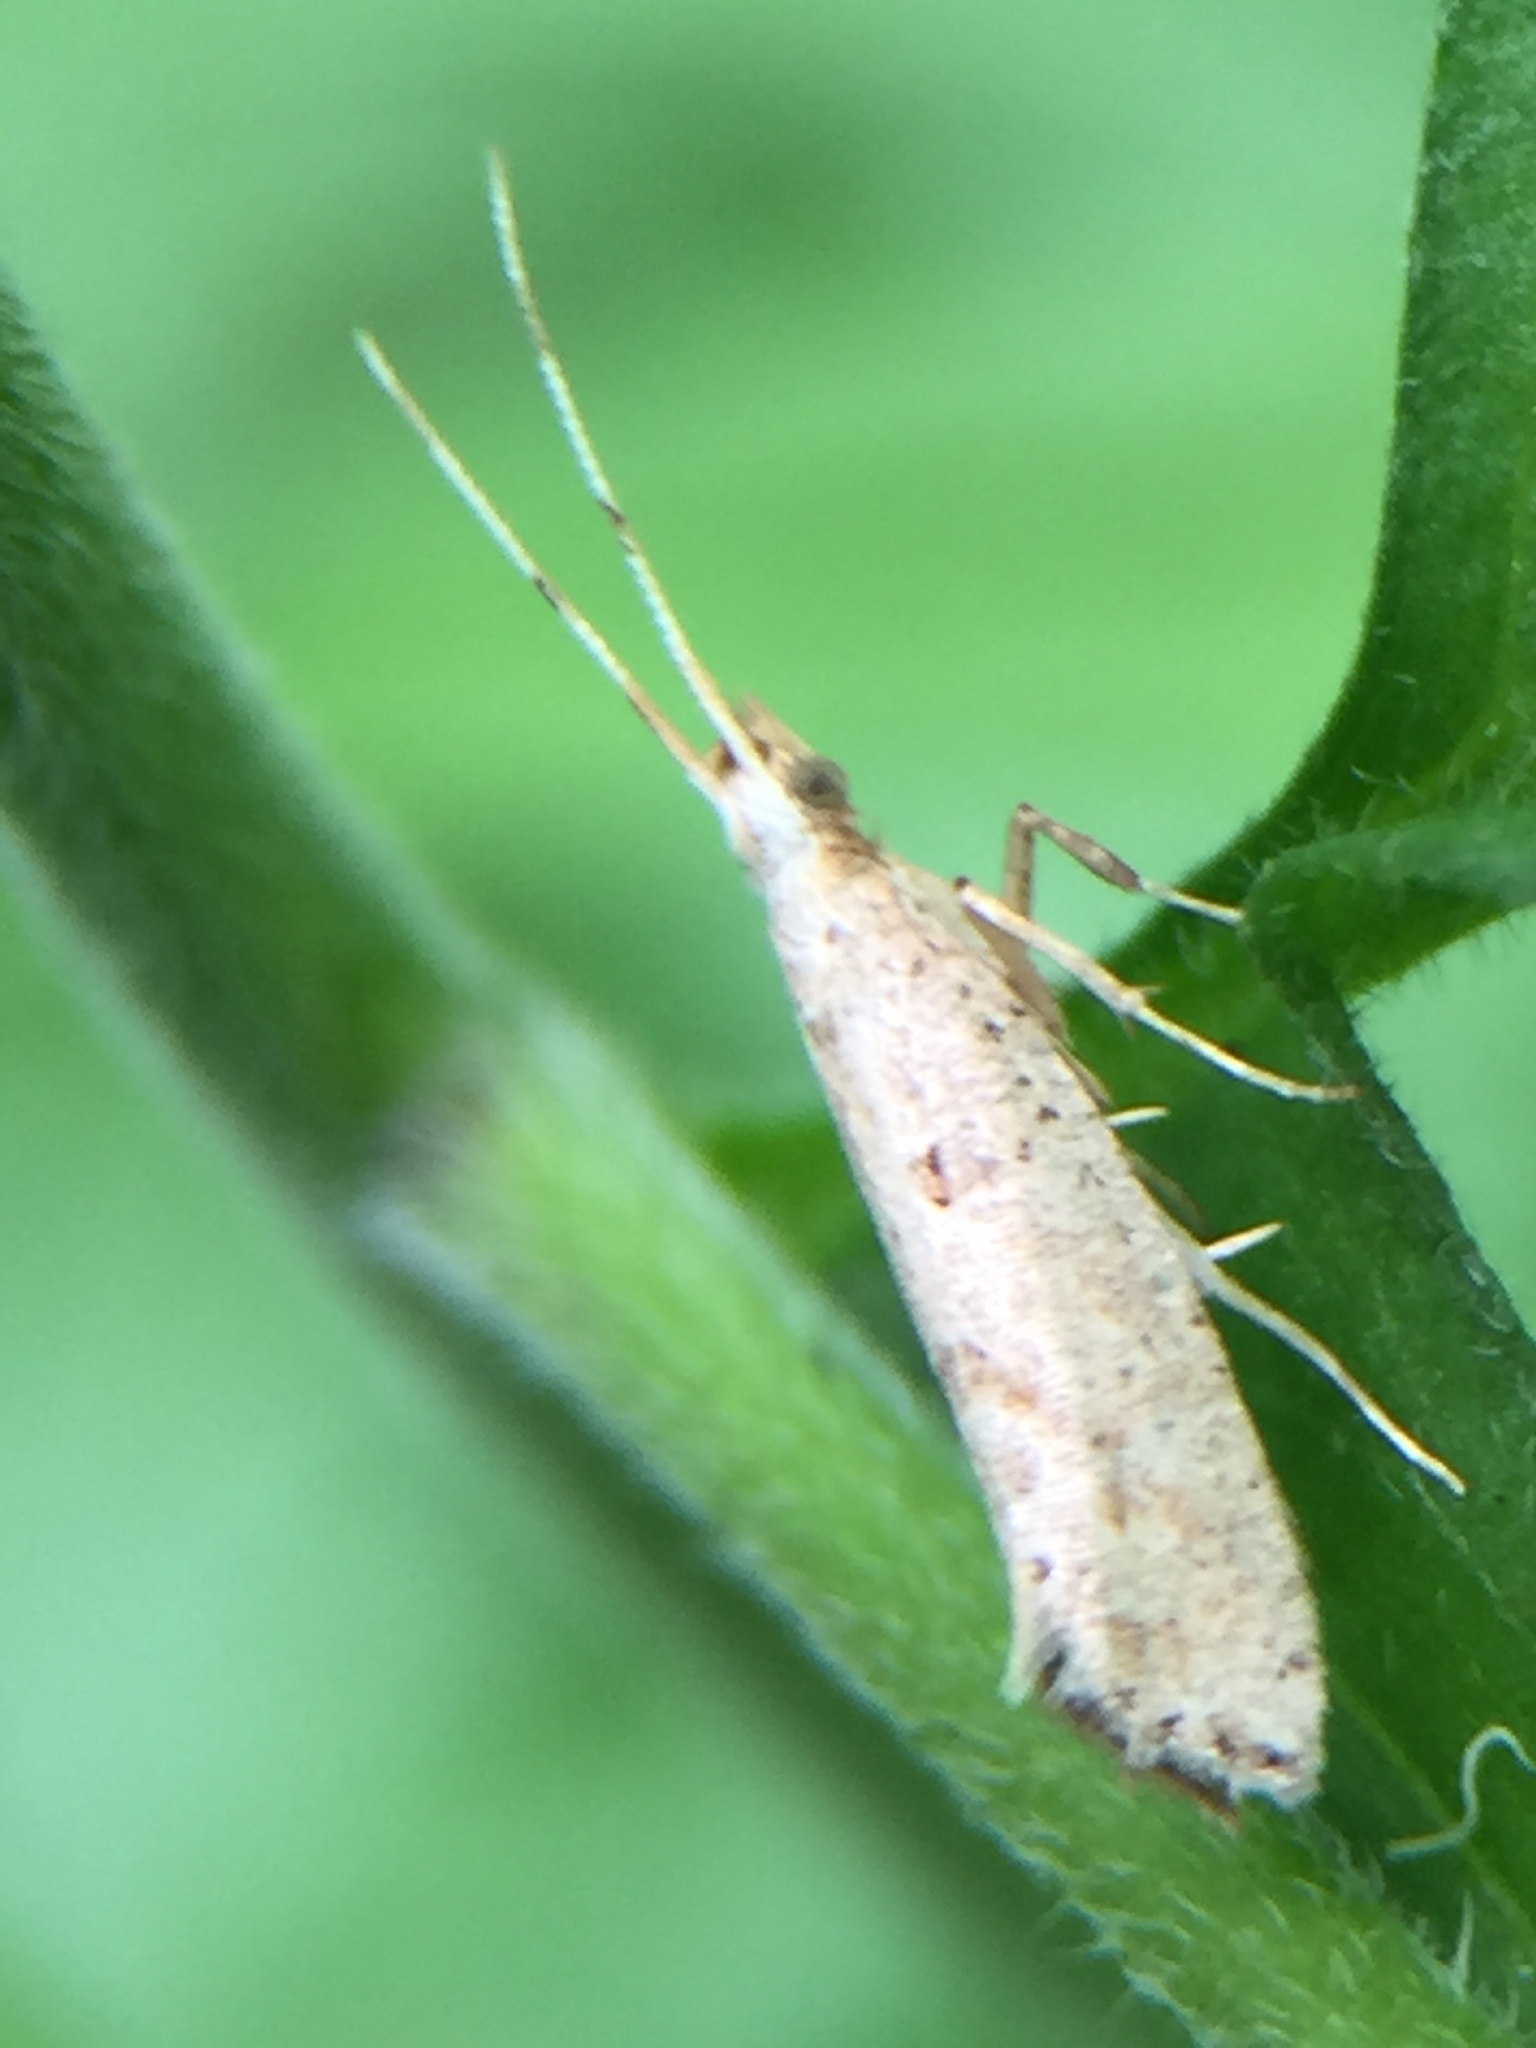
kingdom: Animalia
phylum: Arthropoda
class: Insecta
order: Lepidoptera
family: Plutellidae
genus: Leuroperna
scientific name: Leuroperna sera
